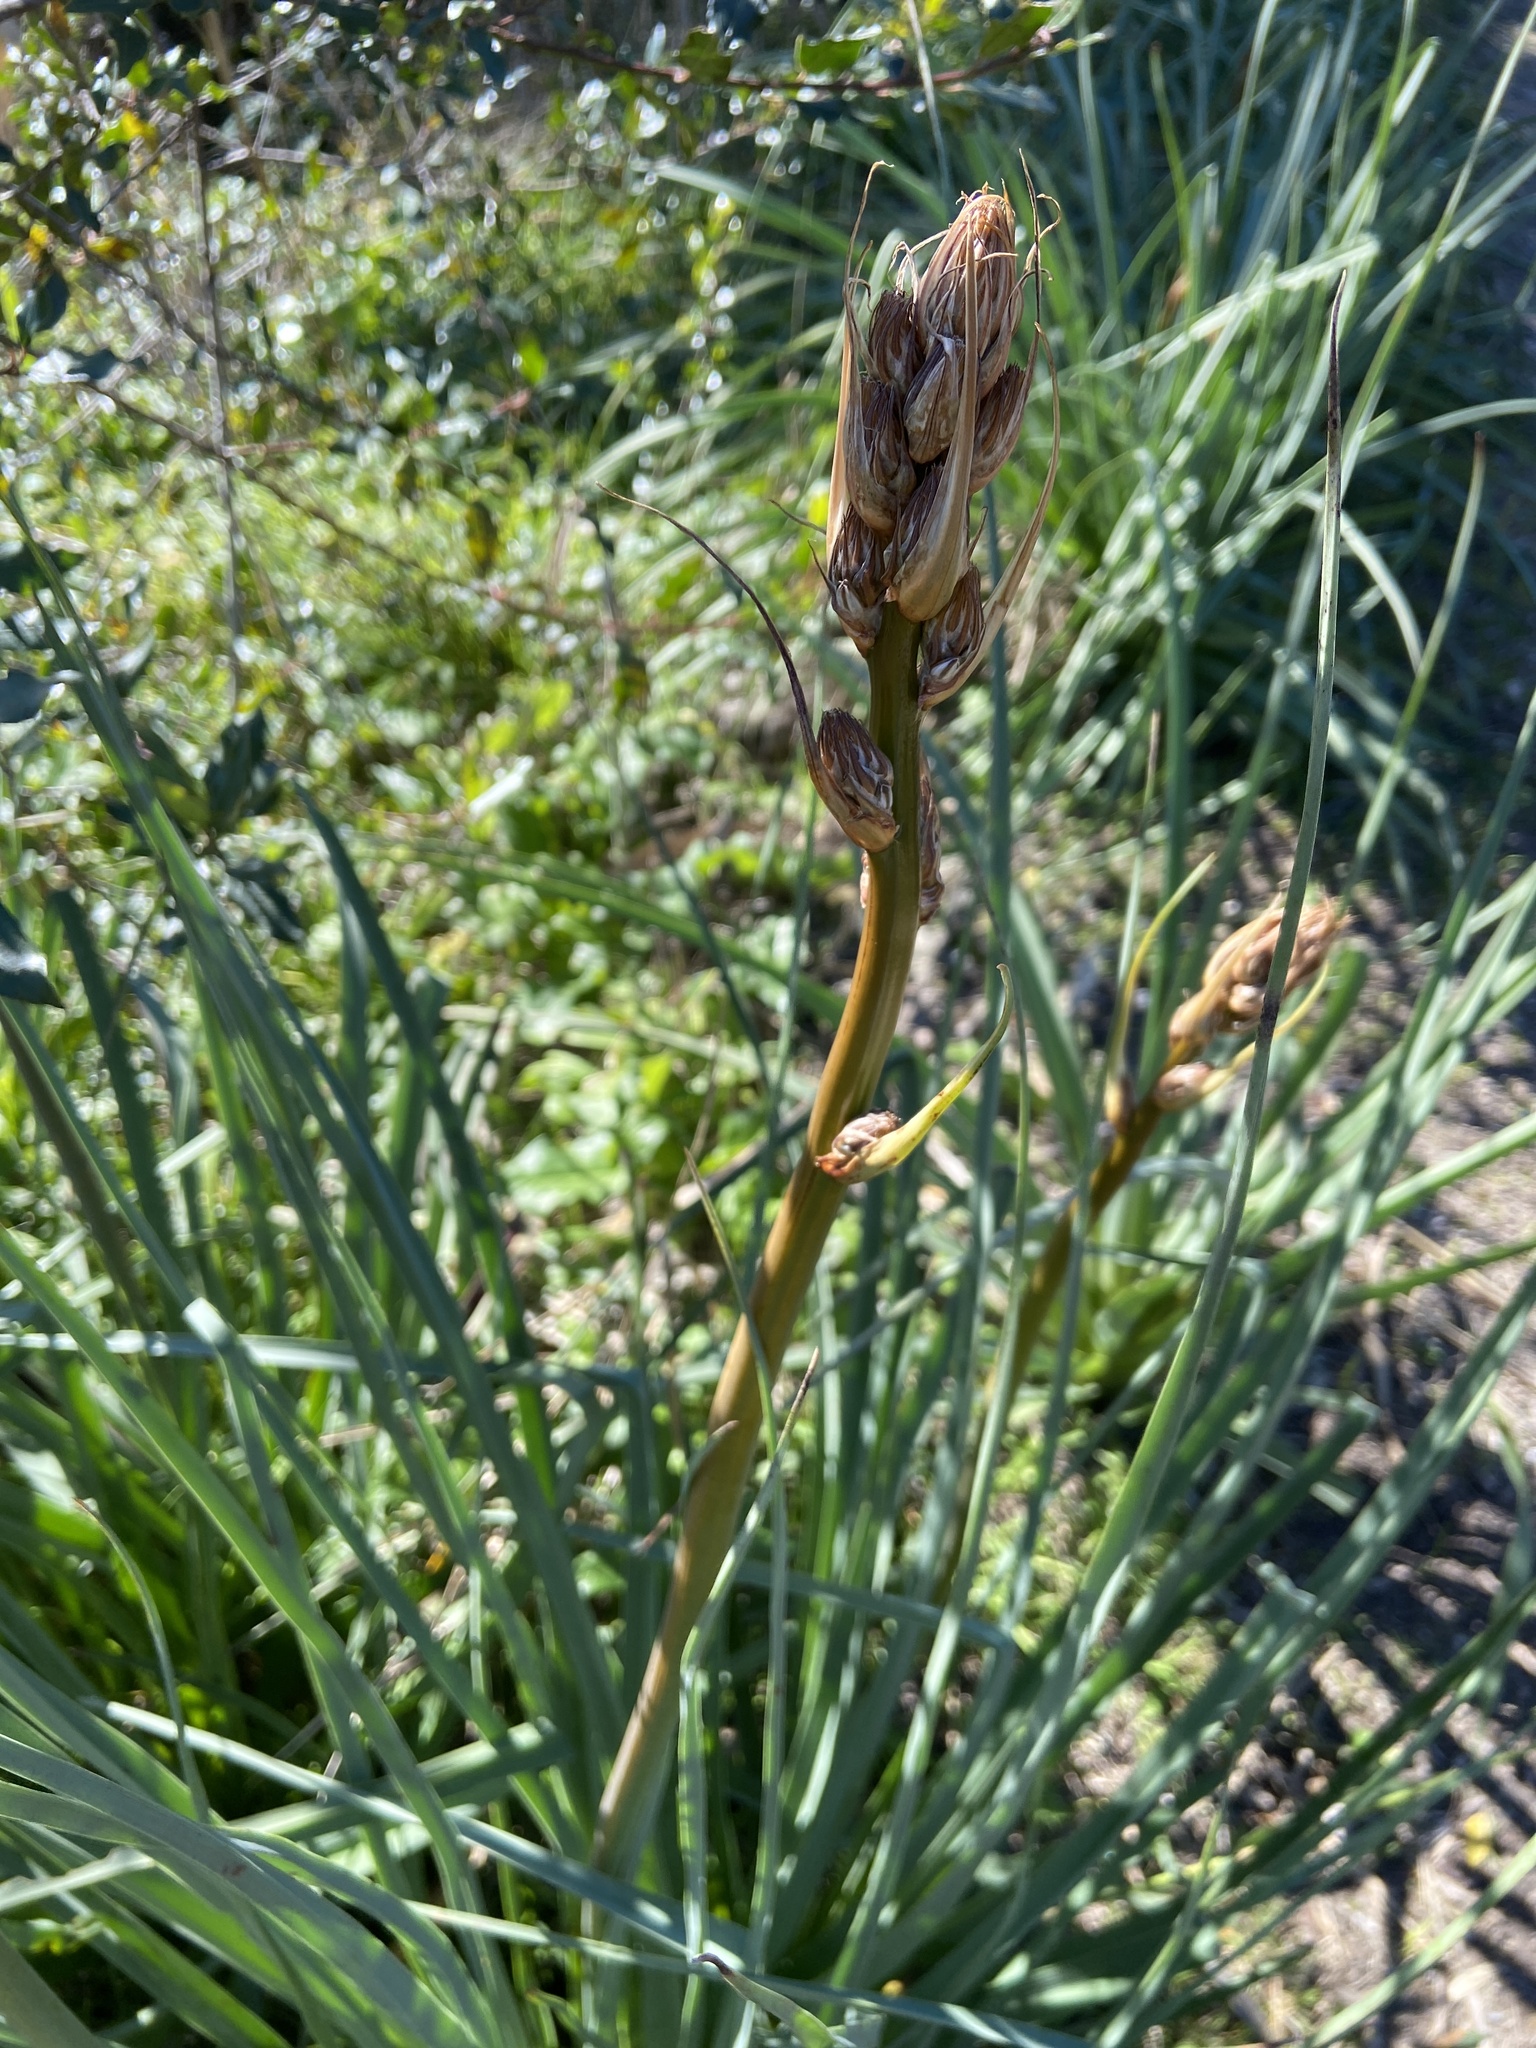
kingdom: Plantae
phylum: Tracheophyta
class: Liliopsida
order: Asparagales
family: Asphodelaceae
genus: Asphodelus
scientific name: Asphodelus ramosus
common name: Silverrod
